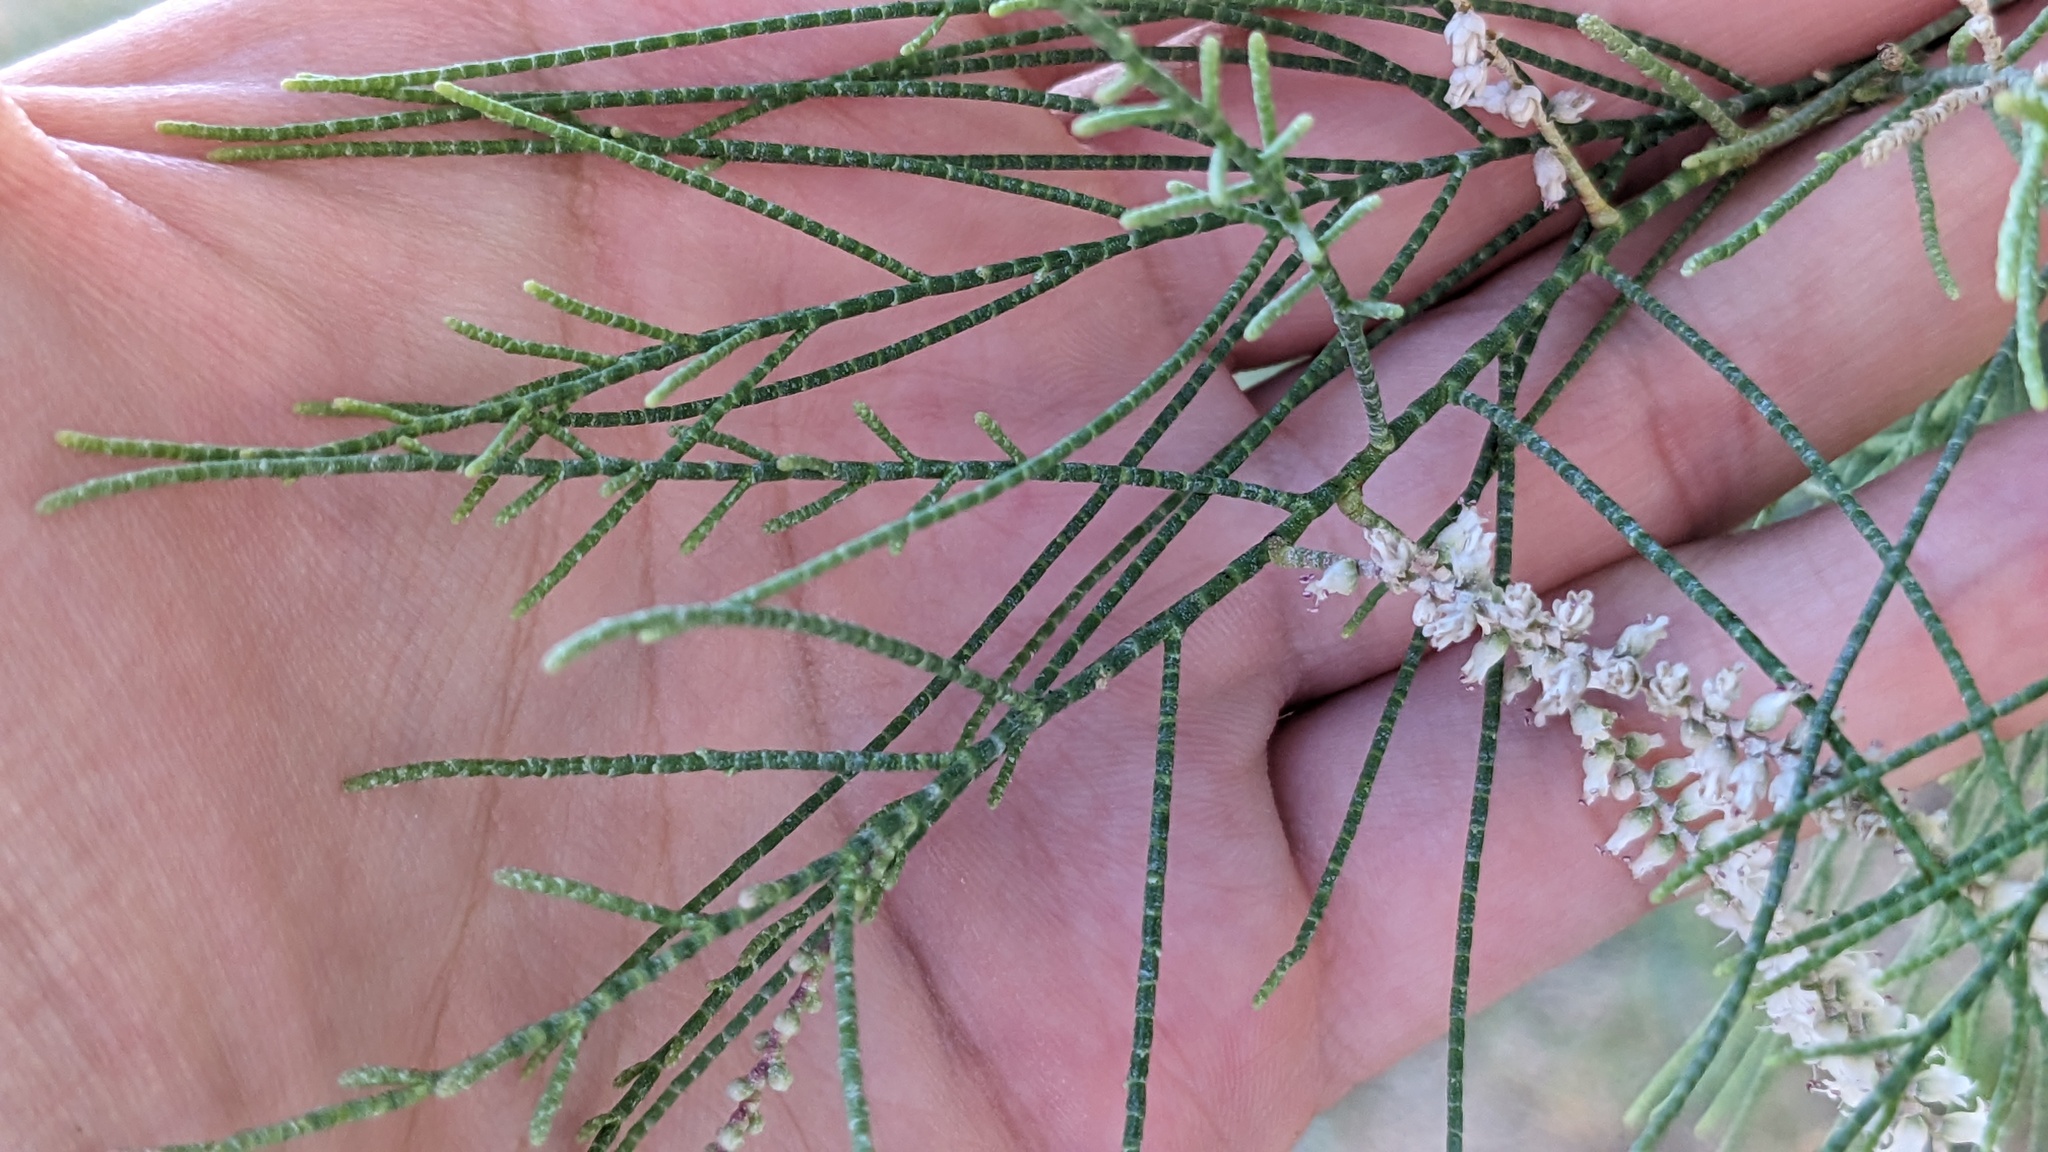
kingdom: Plantae
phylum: Tracheophyta
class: Magnoliopsida
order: Caryophyllales
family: Tamaricaceae
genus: Tamarix
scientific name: Tamarix aphylla
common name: Athel tamarisk
